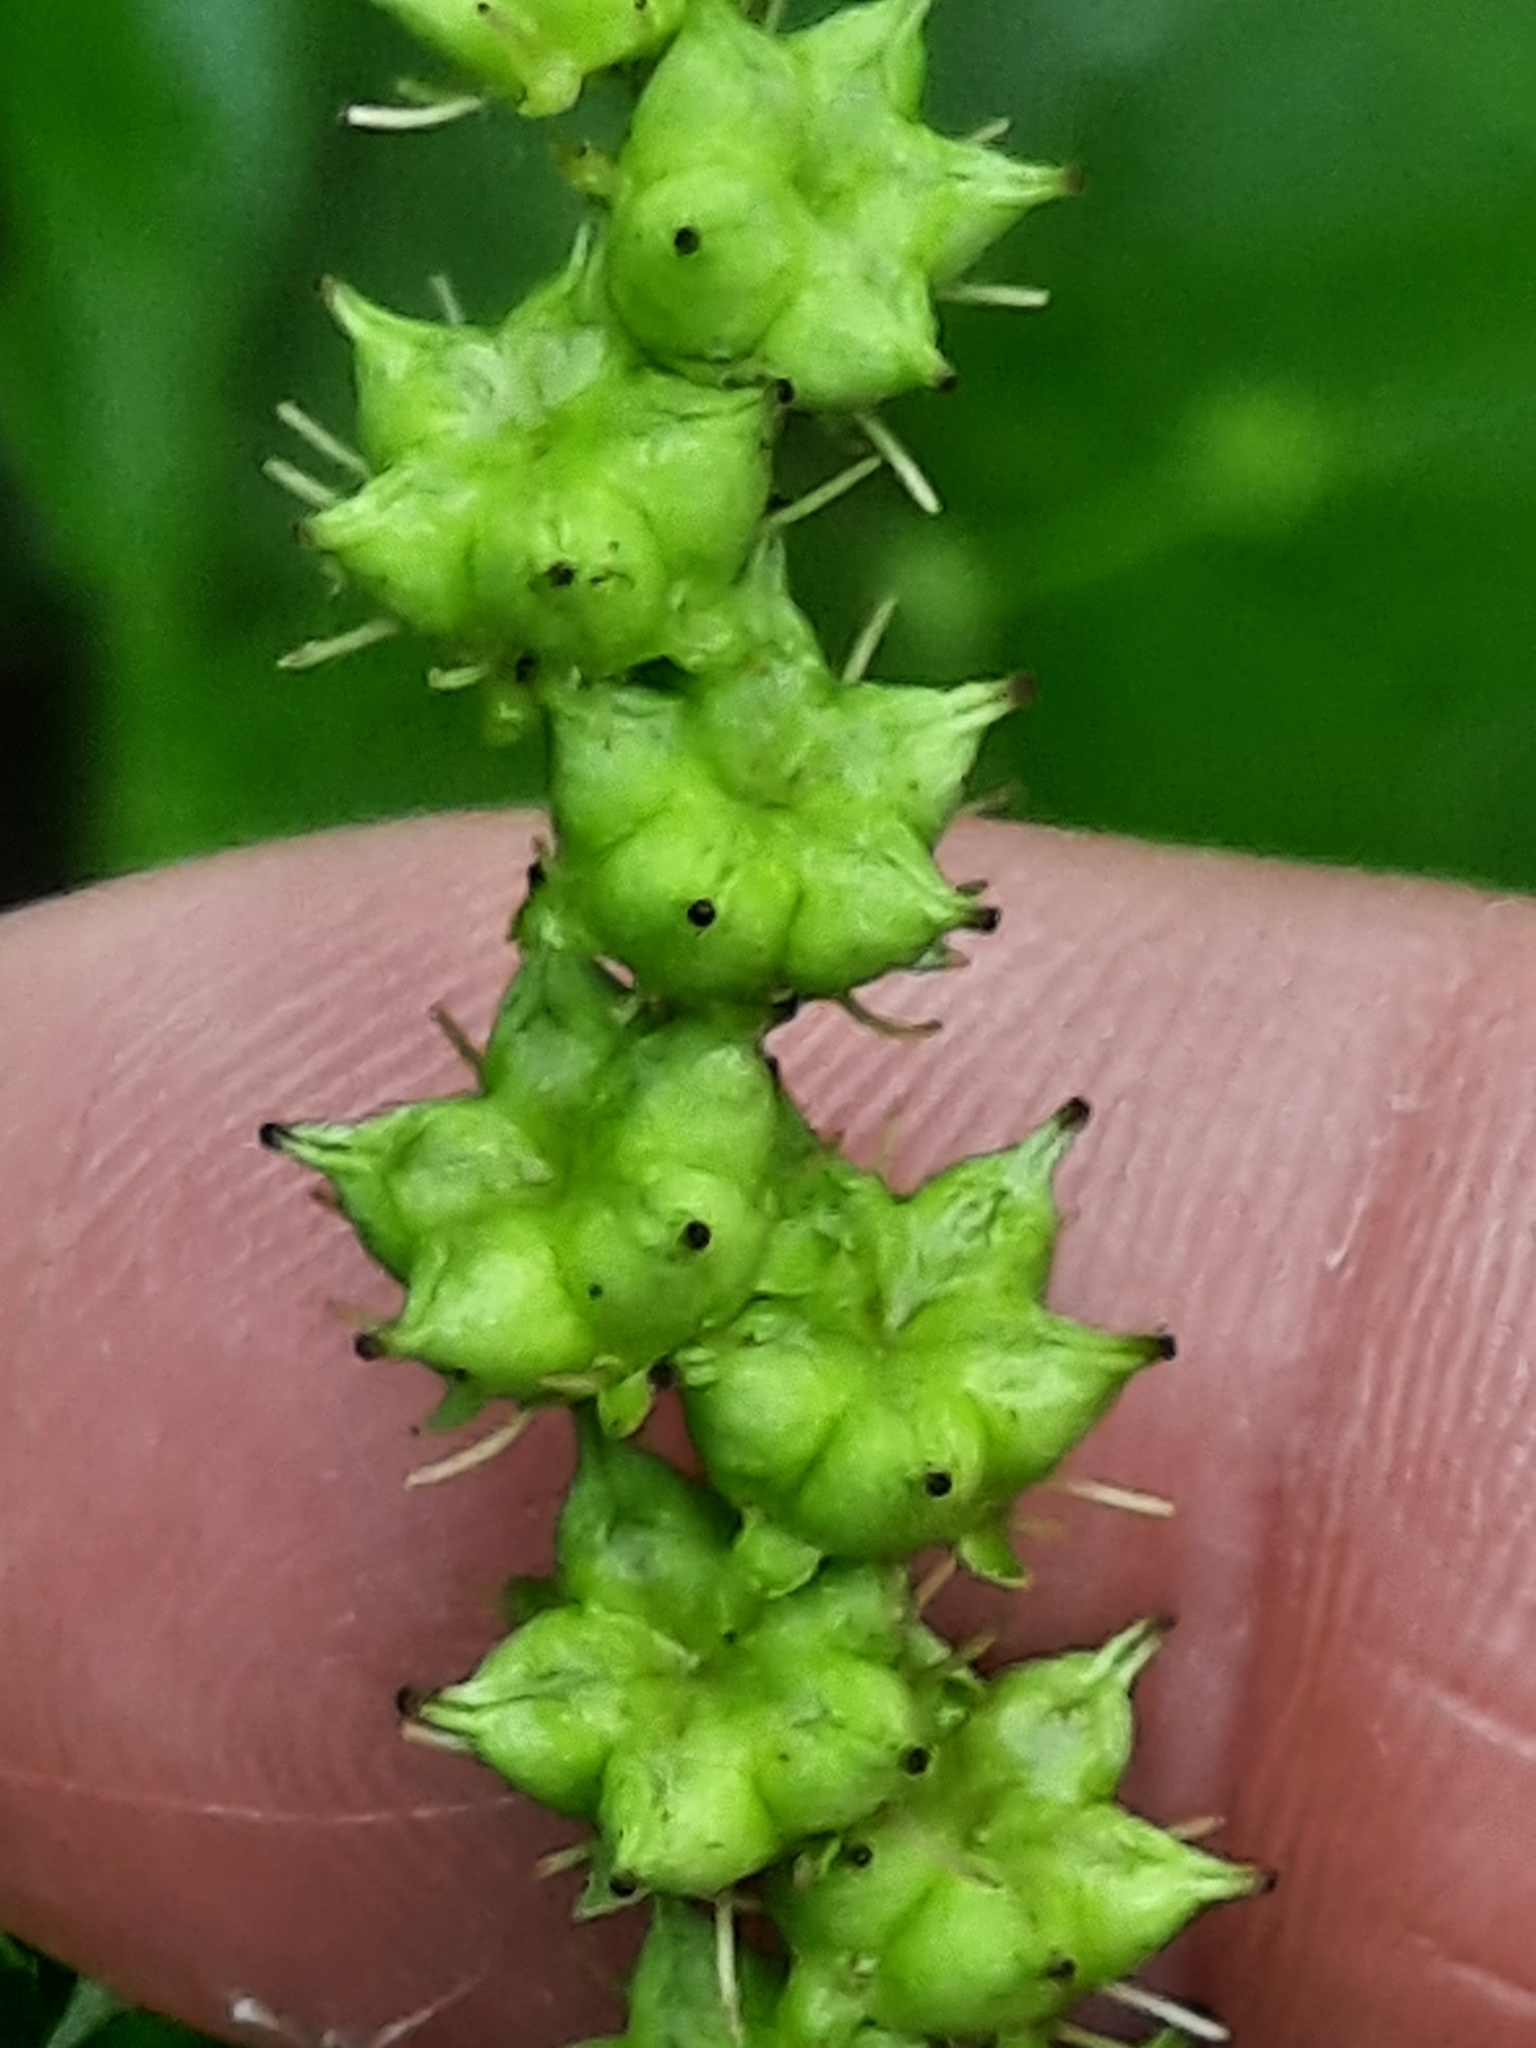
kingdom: Plantae
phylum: Tracheophyta
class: Magnoliopsida
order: Saxifragales
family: Penthoraceae
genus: Penthorum
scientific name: Penthorum sedoides
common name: Ditch stonecrop
